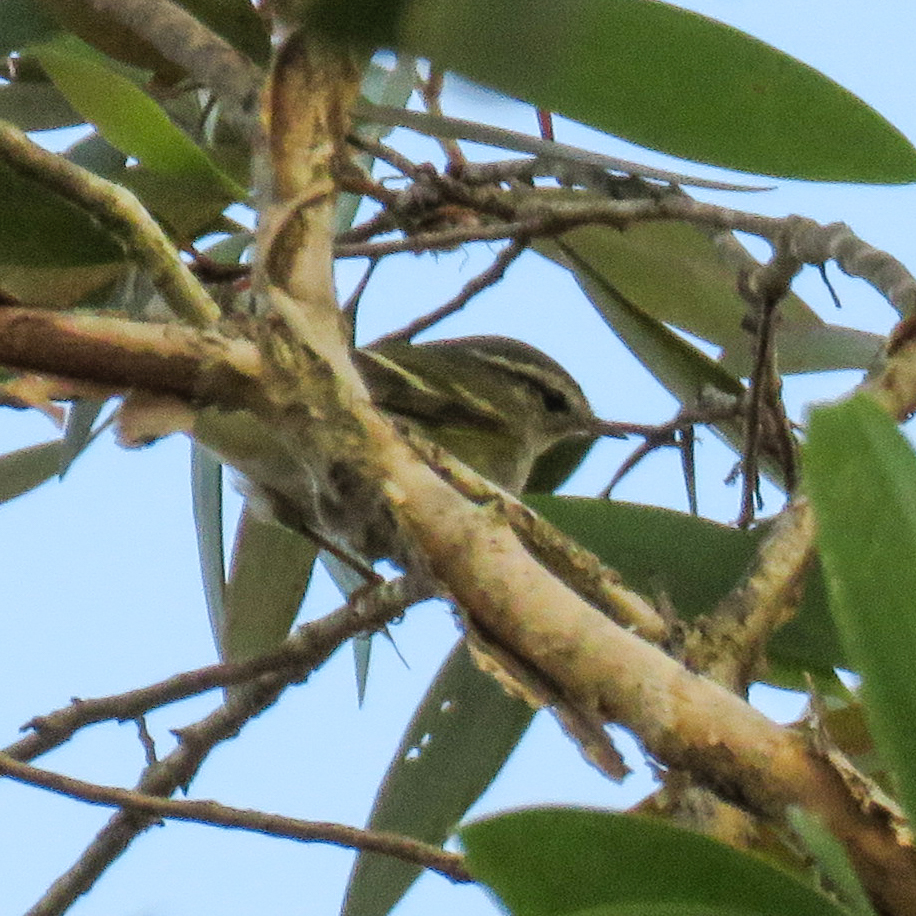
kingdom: Animalia
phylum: Chordata
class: Aves
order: Passeriformes
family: Phylloscopidae
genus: Phylloscopus
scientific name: Phylloscopus inornatus
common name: Yellow-browed warbler
